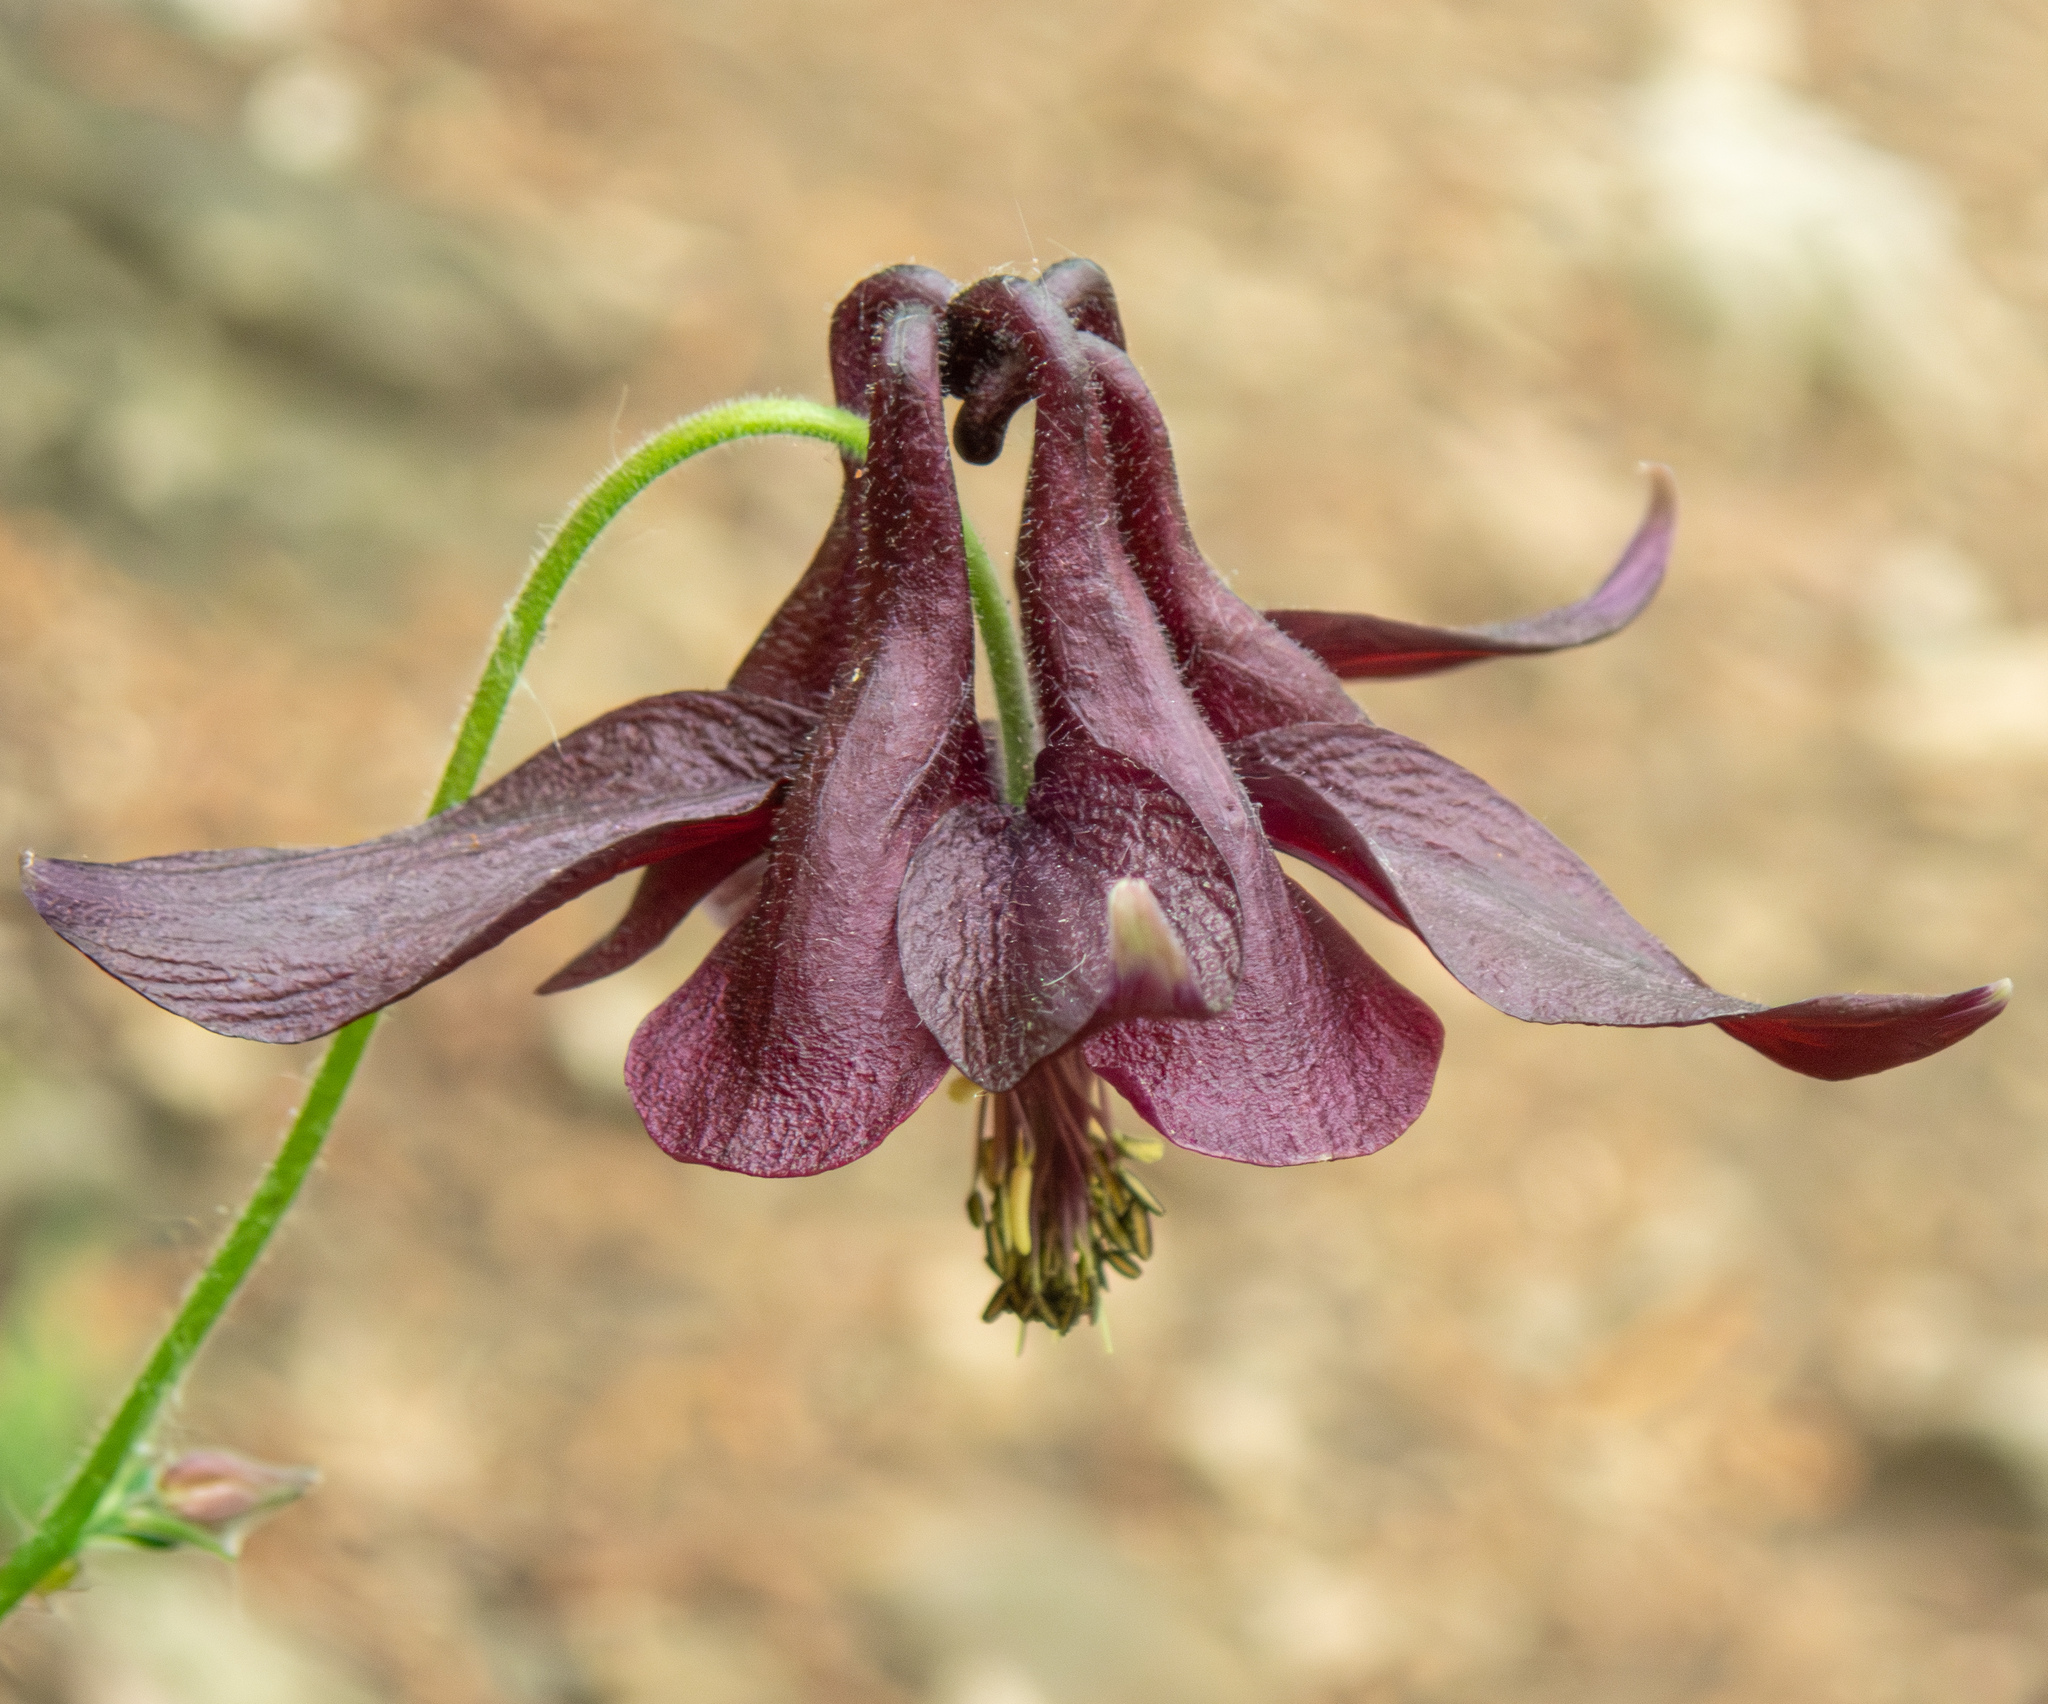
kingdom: Plantae
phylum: Tracheophyta
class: Magnoliopsida
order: Ranunculales
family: Ranunculaceae
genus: Aquilegia
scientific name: Aquilegia atrata
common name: Dark columbine
